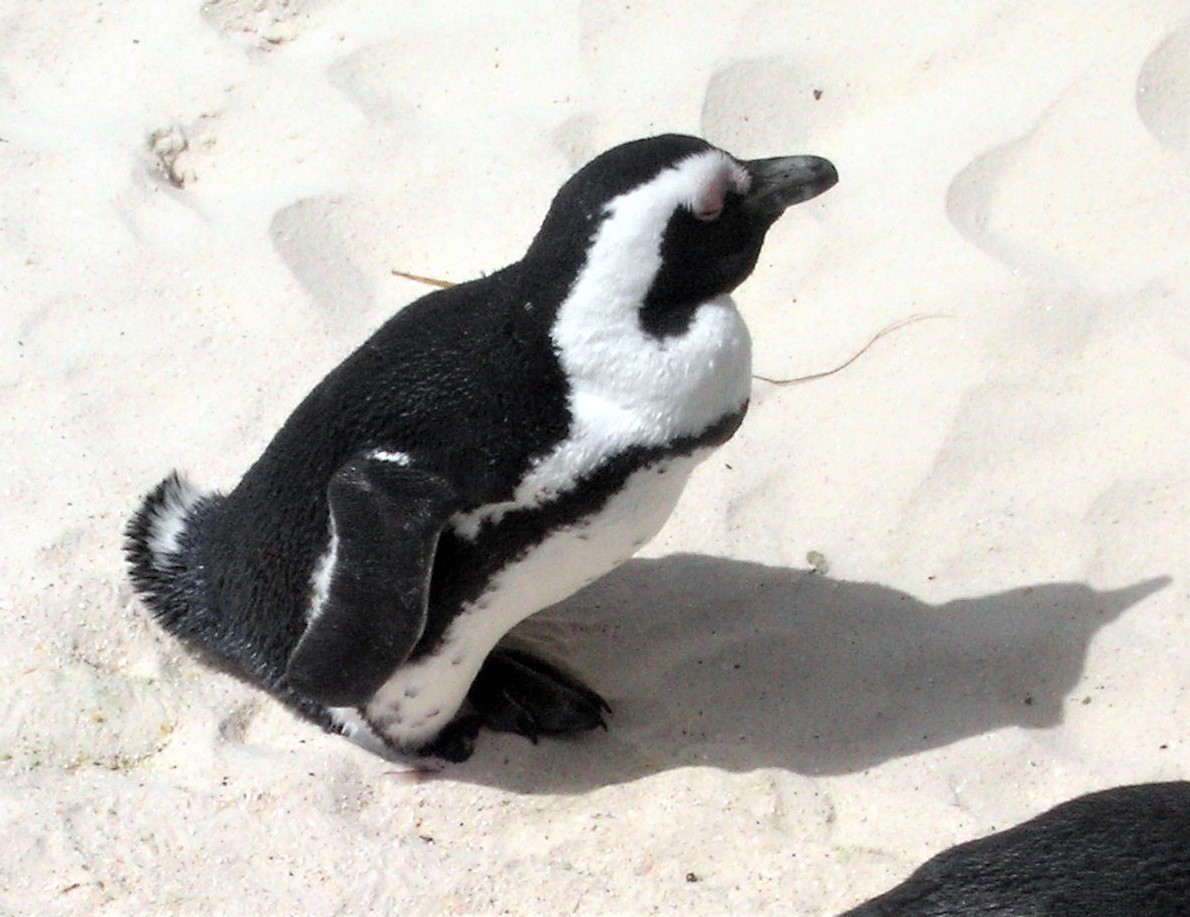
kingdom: Animalia
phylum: Chordata
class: Aves
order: Sphenisciformes
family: Spheniscidae
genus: Spheniscus
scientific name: Spheniscus demersus
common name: African penguin
